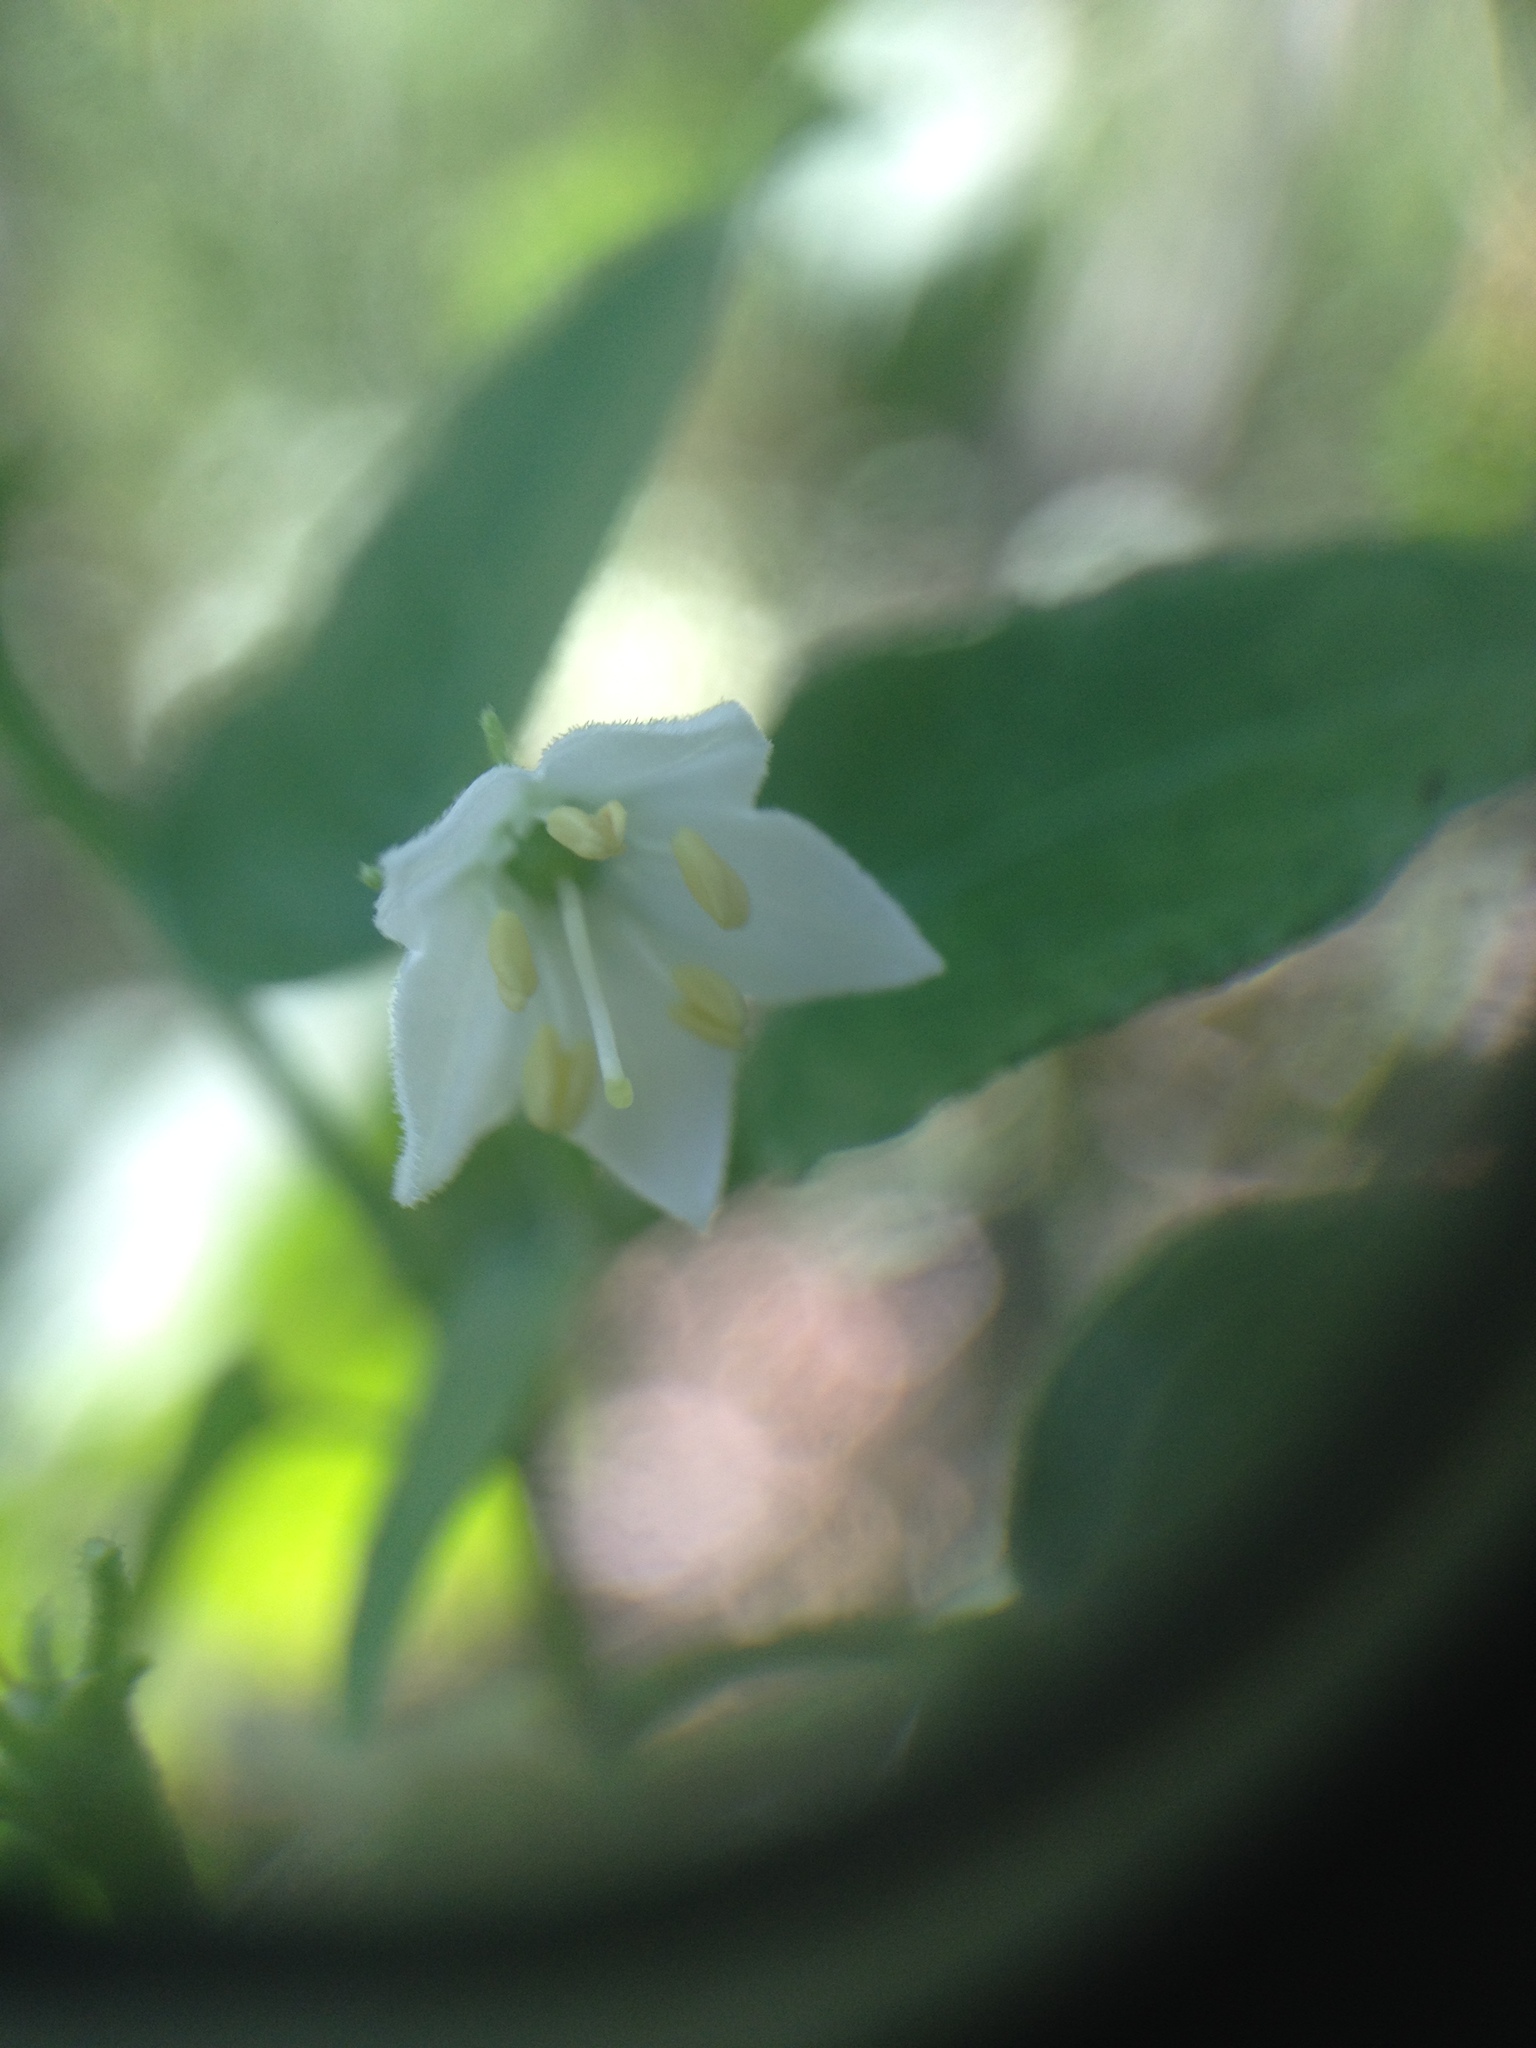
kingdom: Plantae
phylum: Tracheophyta
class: Magnoliopsida
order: Solanales
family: Solanaceae
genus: Capsicum
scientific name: Capsicum chacoense
